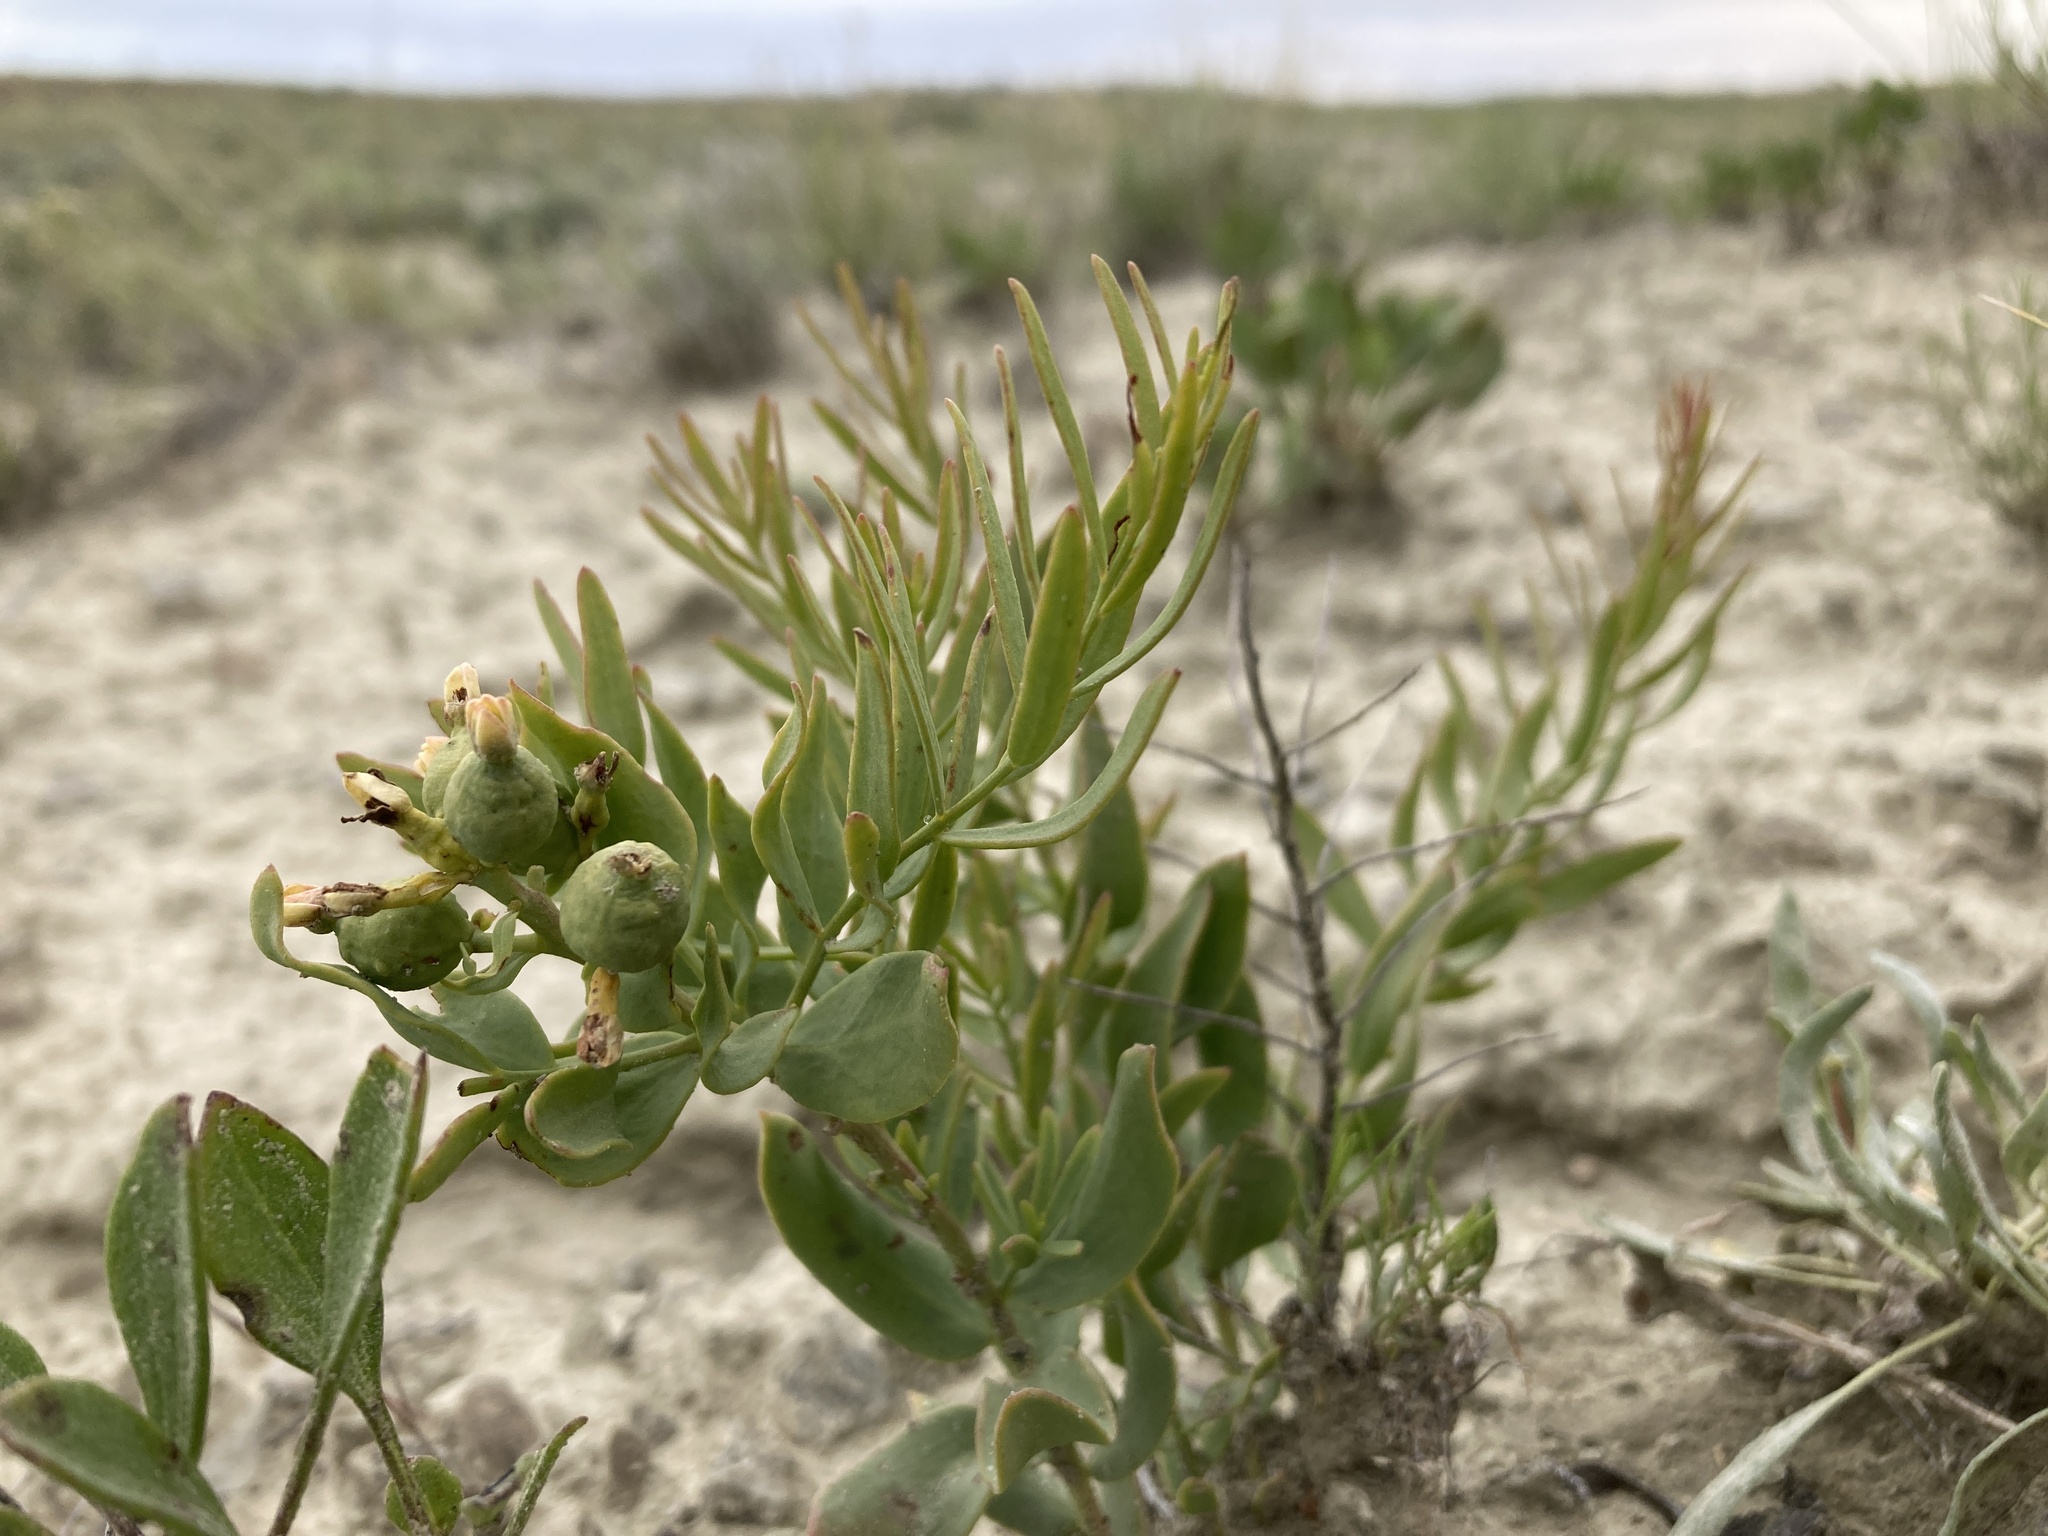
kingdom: Plantae
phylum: Tracheophyta
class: Magnoliopsida
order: Santalales
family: Comandraceae
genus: Comandra
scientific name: Comandra umbellata
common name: Bastard toadflax
